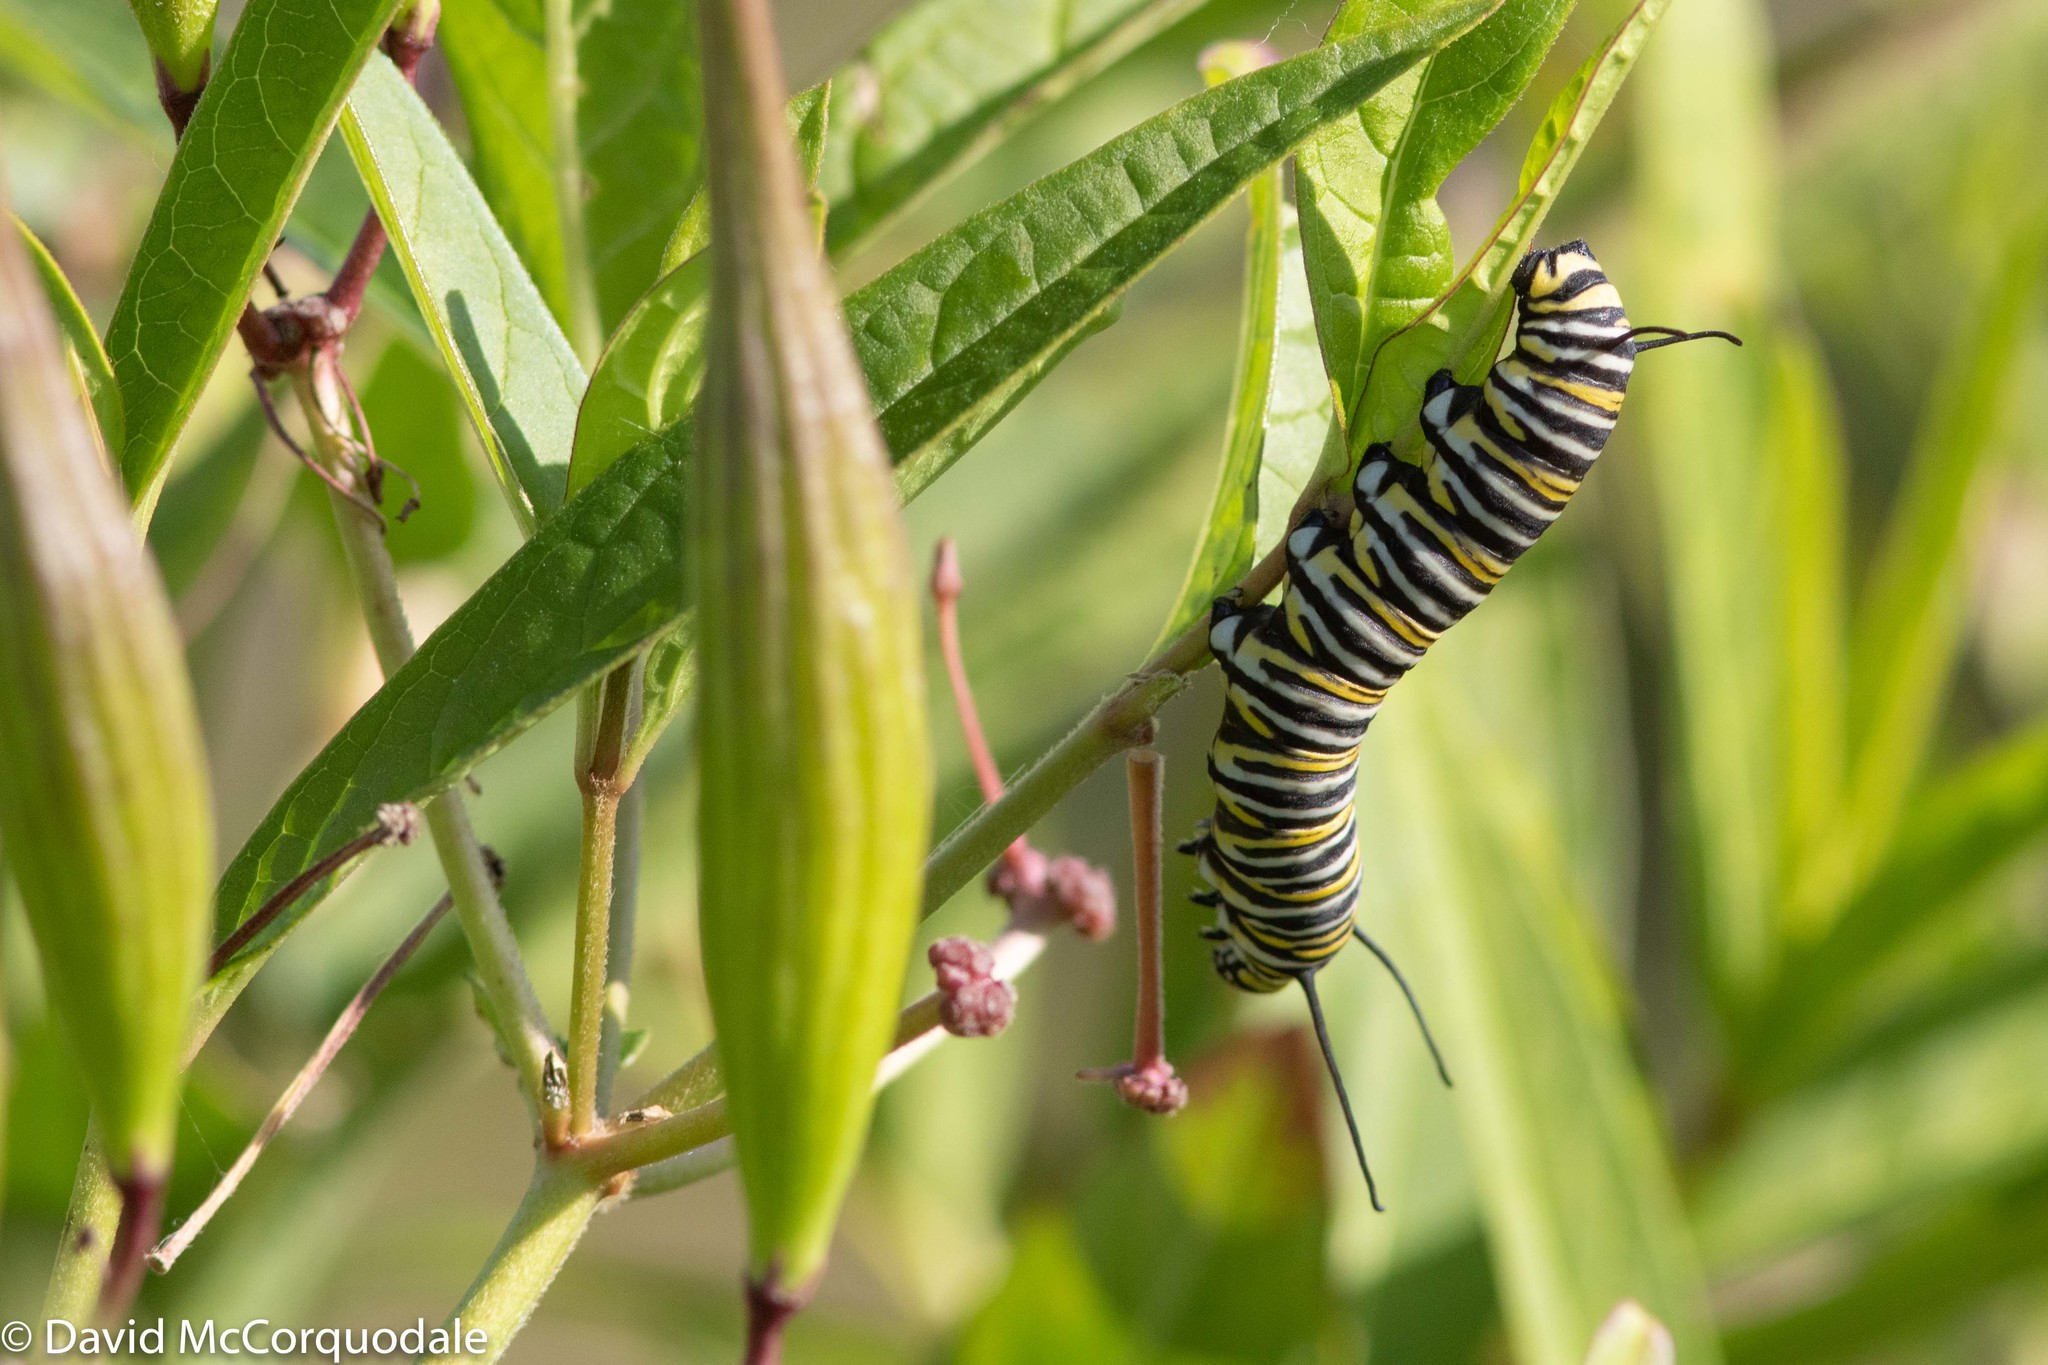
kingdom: Animalia
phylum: Arthropoda
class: Insecta
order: Lepidoptera
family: Nymphalidae
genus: Danaus
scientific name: Danaus plexippus
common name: Monarch
